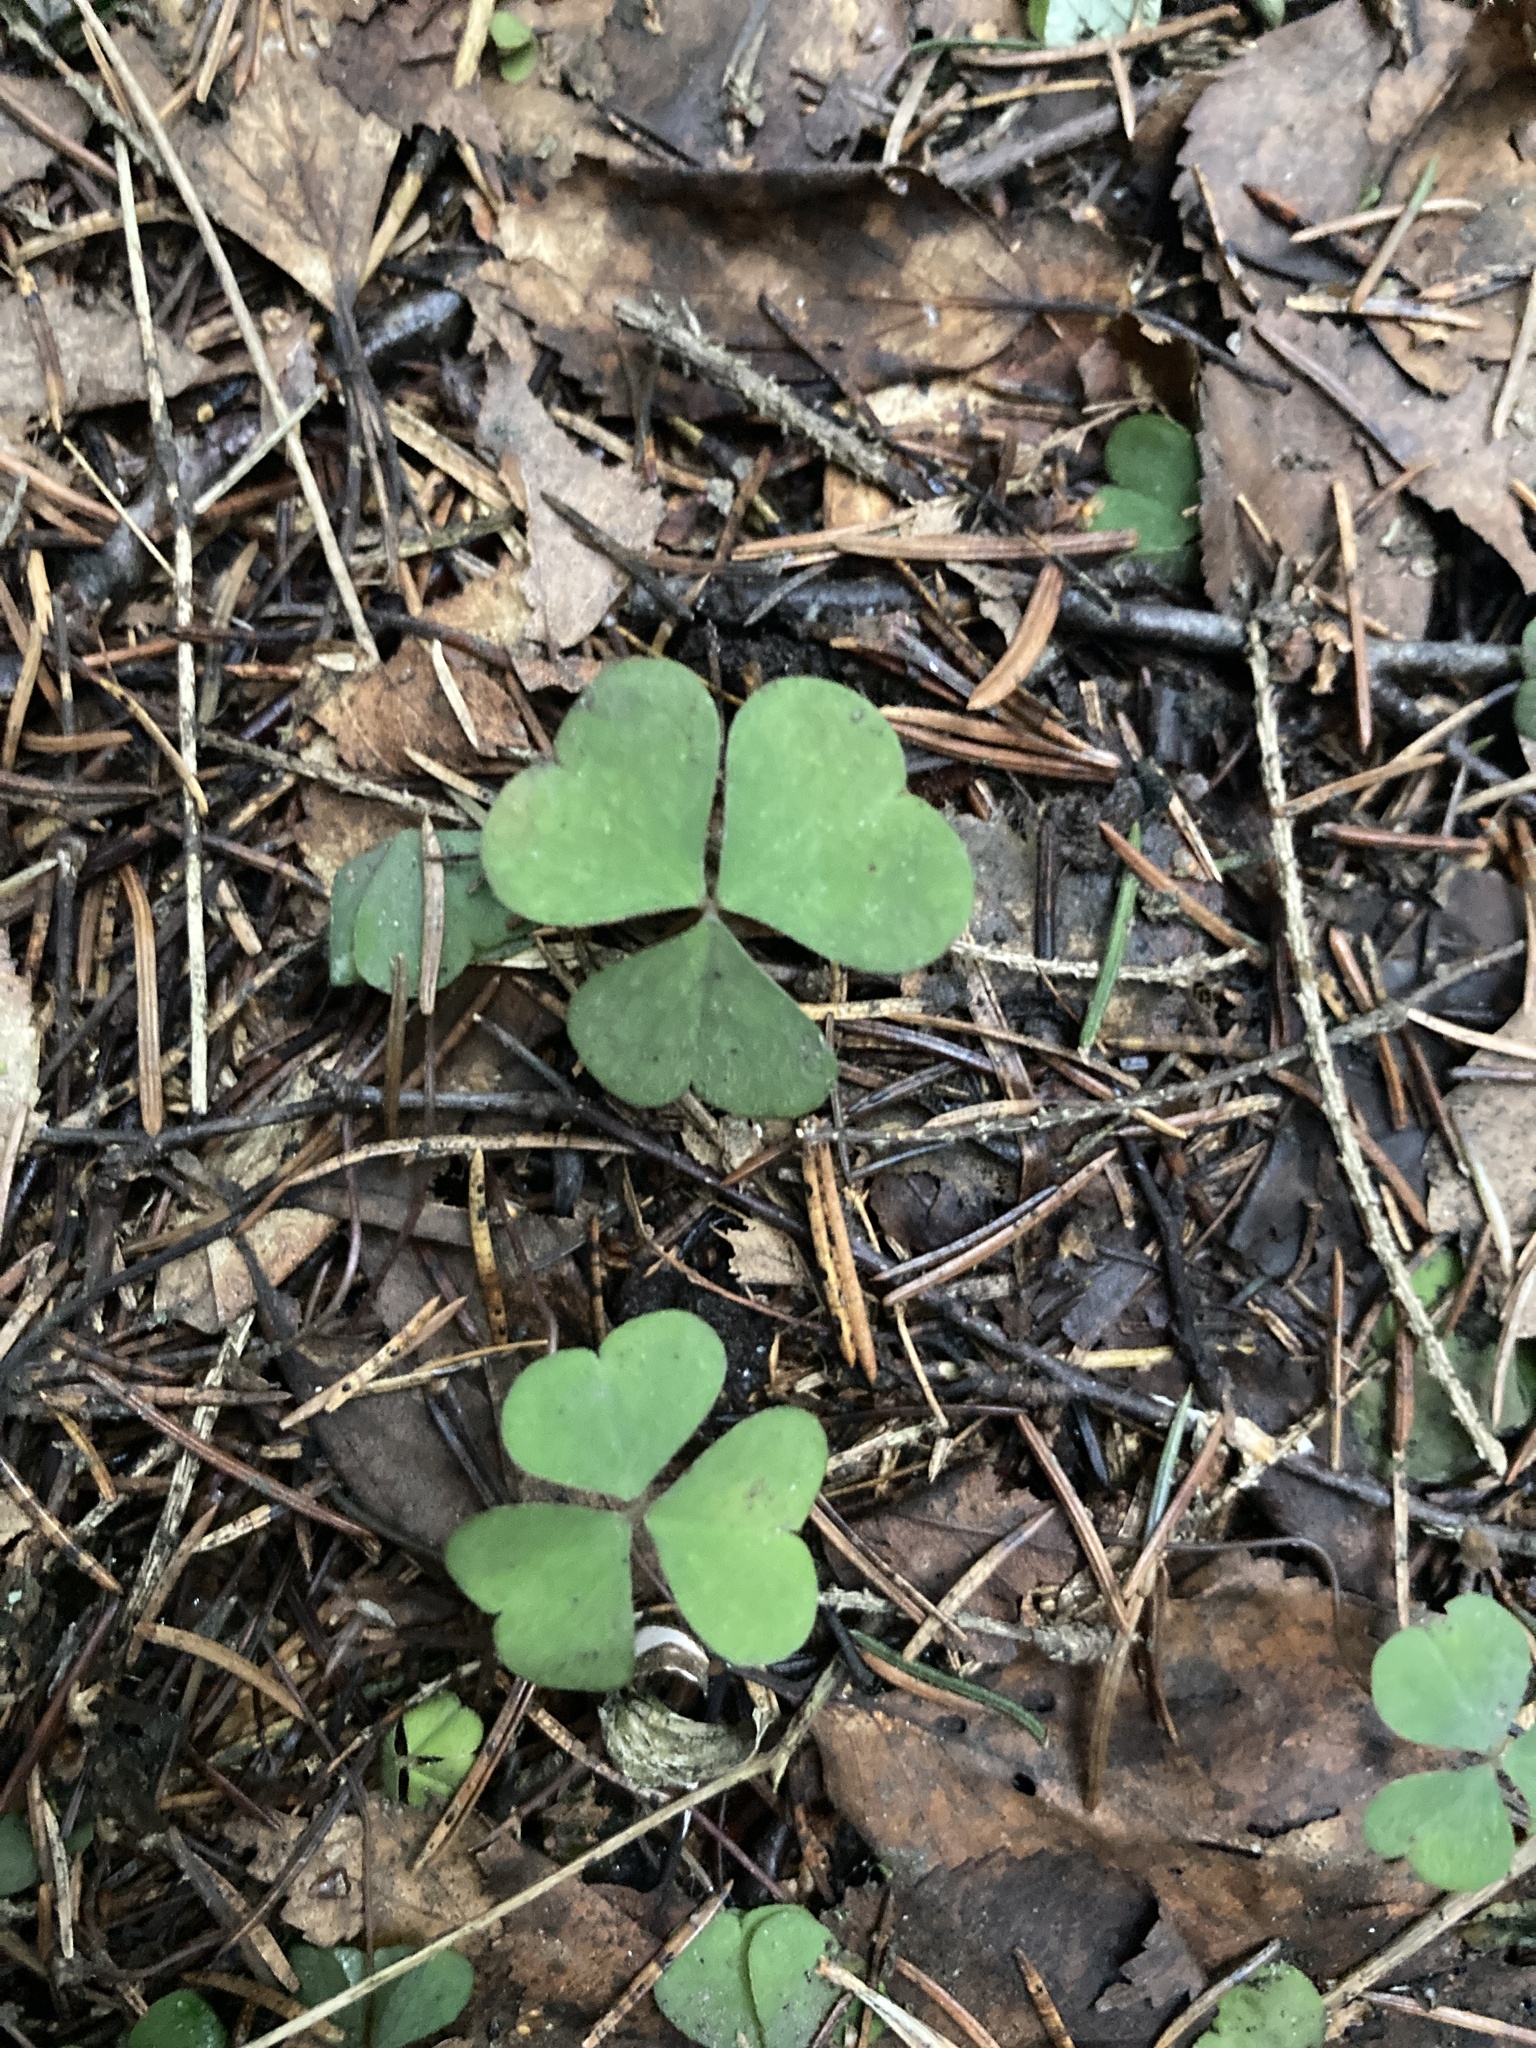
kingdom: Plantae
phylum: Tracheophyta
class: Magnoliopsida
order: Oxalidales
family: Oxalidaceae
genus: Oxalis
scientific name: Oxalis acetosella
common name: Wood-sorrel
